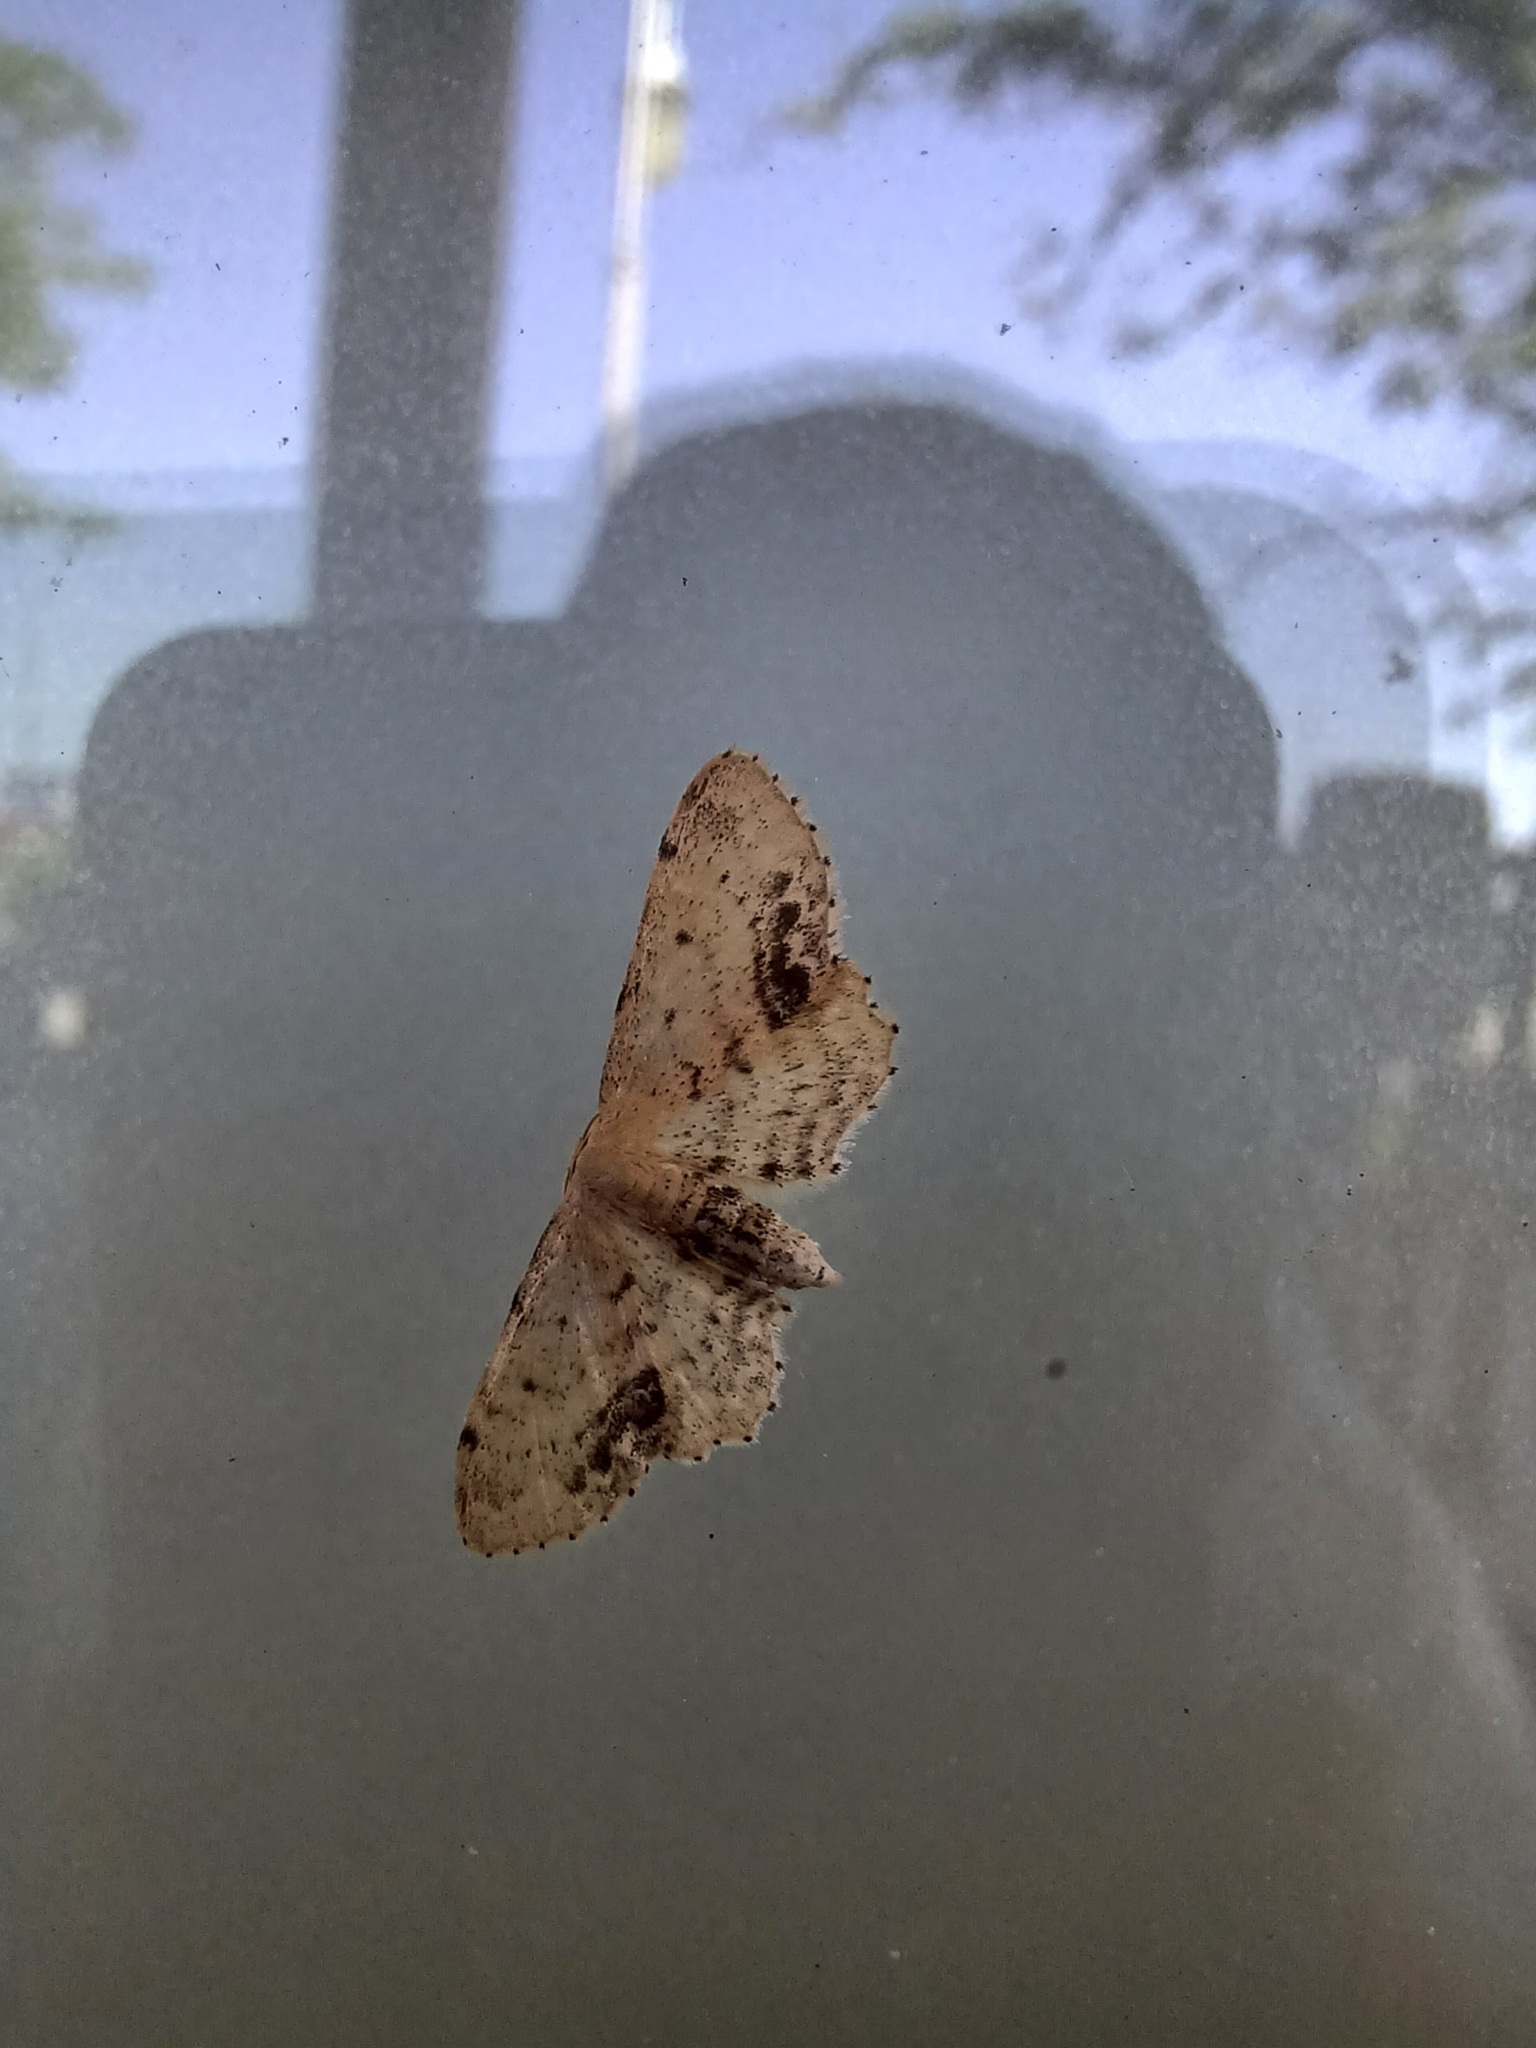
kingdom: Animalia
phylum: Arthropoda
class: Insecta
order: Lepidoptera
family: Geometridae
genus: Idaea
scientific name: Idaea dimidiata
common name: Single-dotted wave
